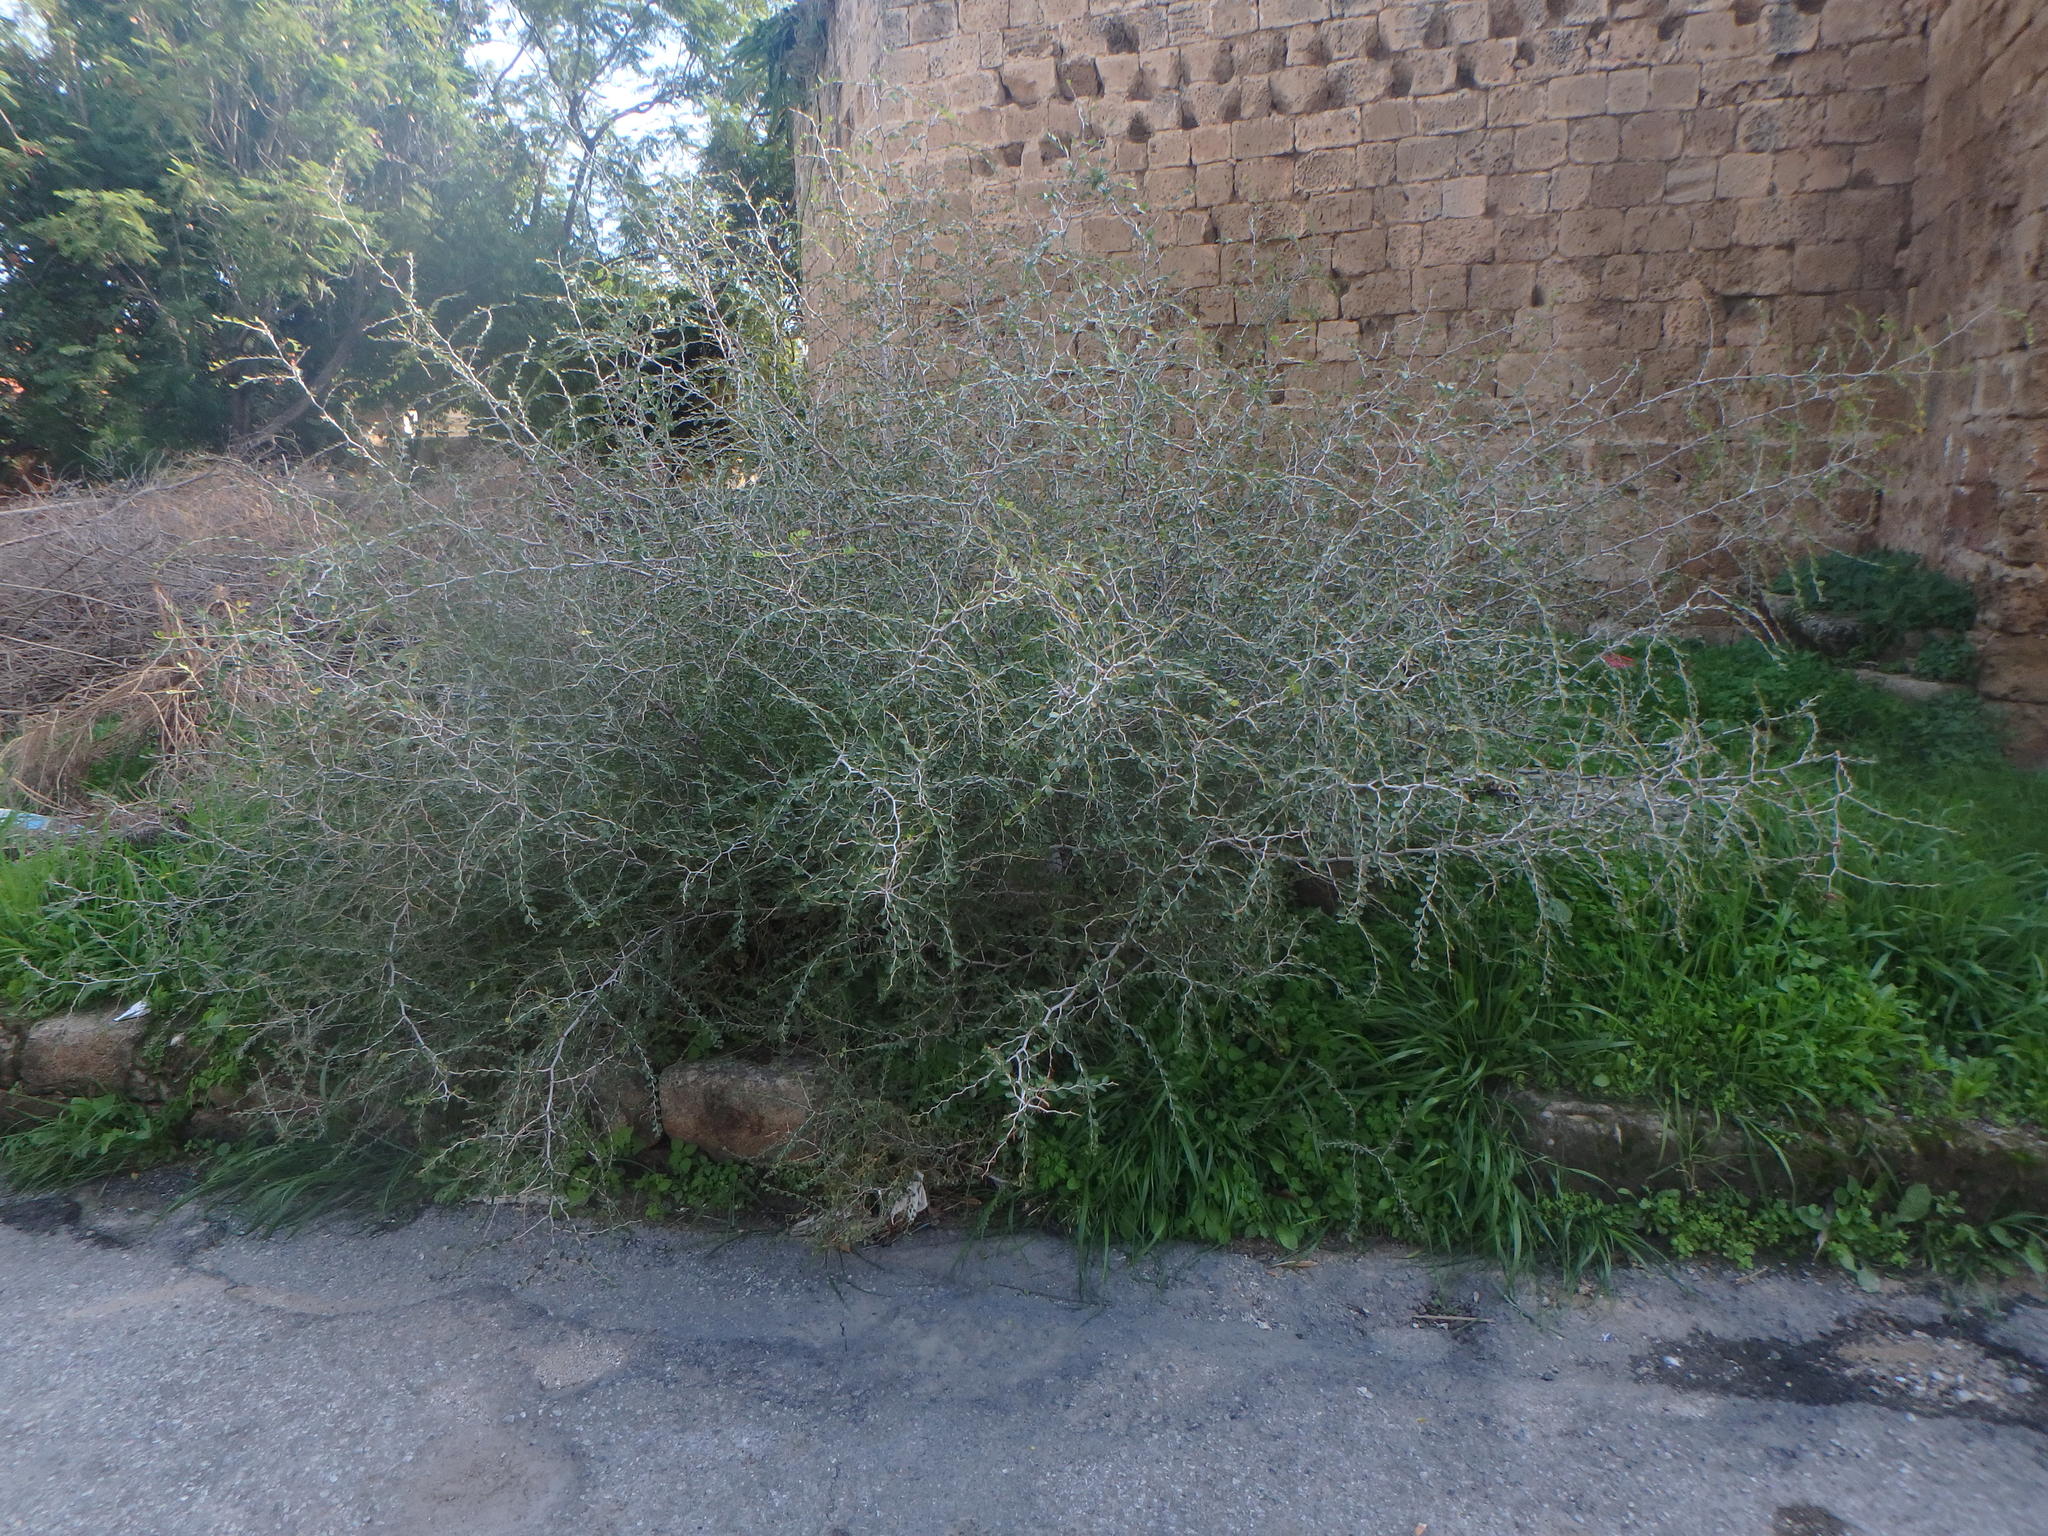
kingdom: Plantae
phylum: Tracheophyta
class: Magnoliopsida
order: Rosales
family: Rhamnaceae
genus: Ziziphus
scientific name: Ziziphus lotus
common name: Lotus
